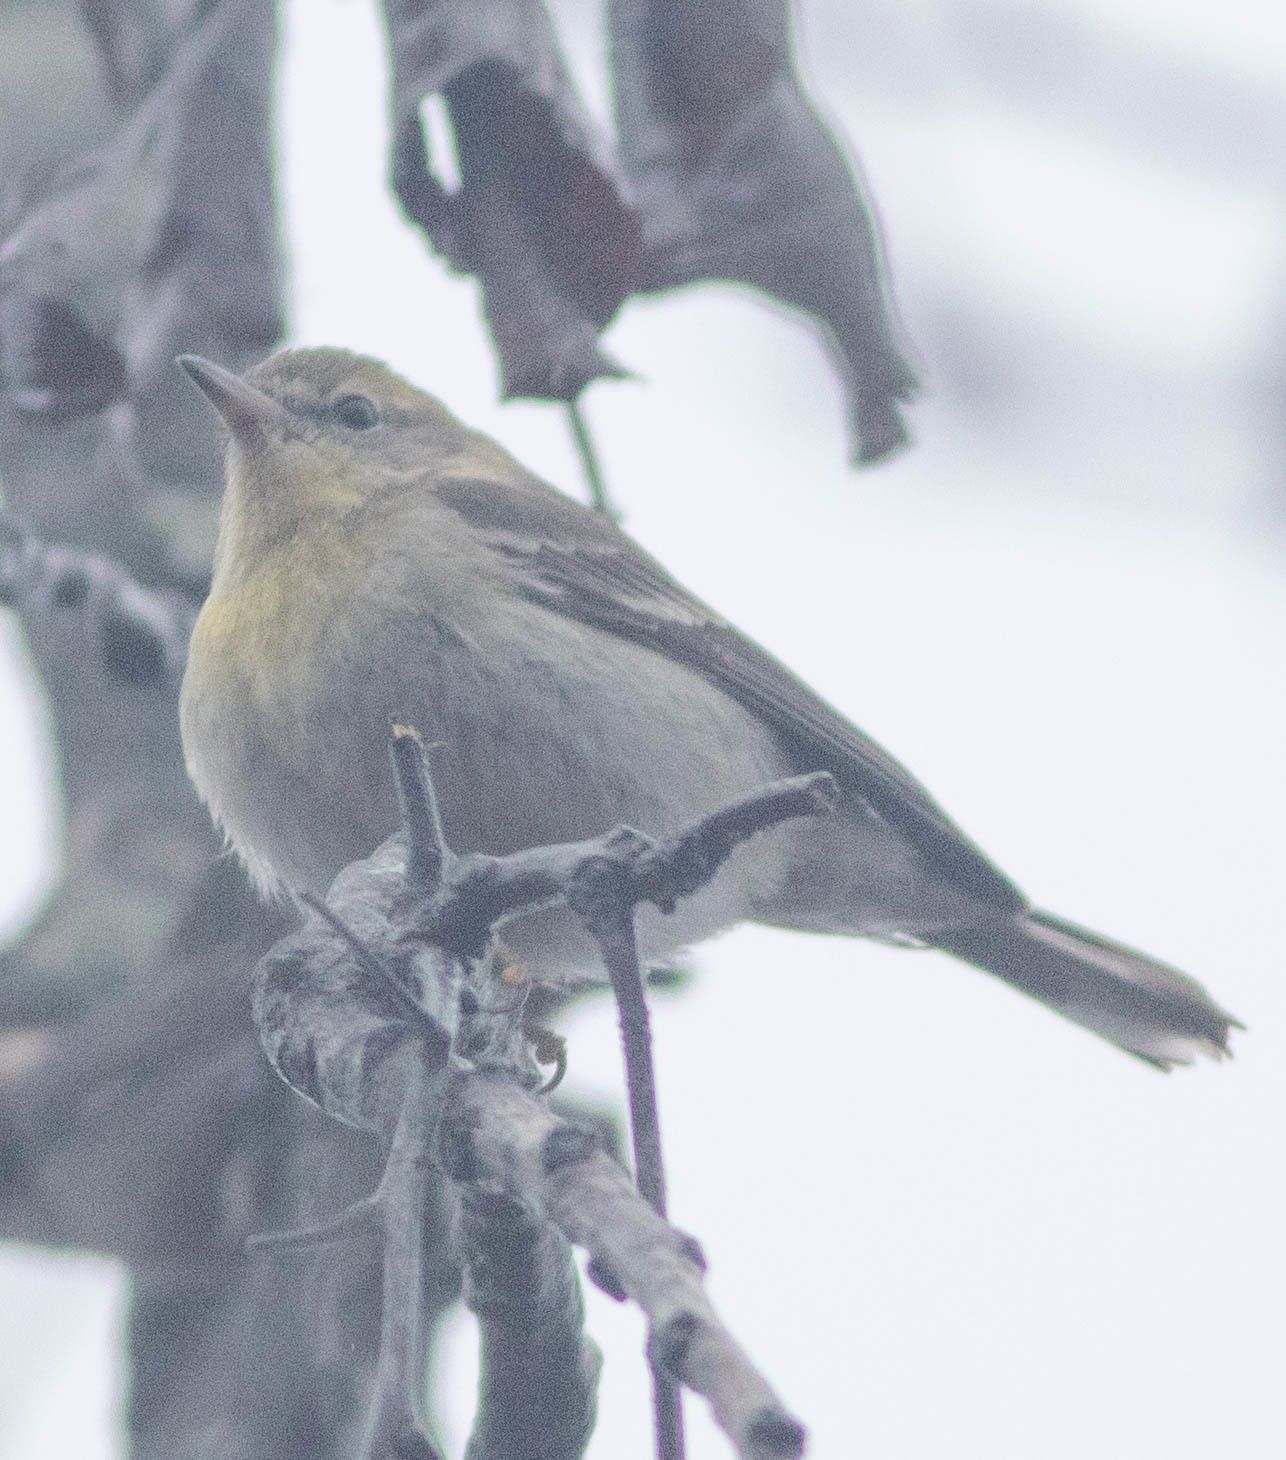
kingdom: Animalia
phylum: Chordata
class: Aves
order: Passeriformes
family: Parulidae
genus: Setophaga
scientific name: Setophaga pinus
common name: Pine warbler
